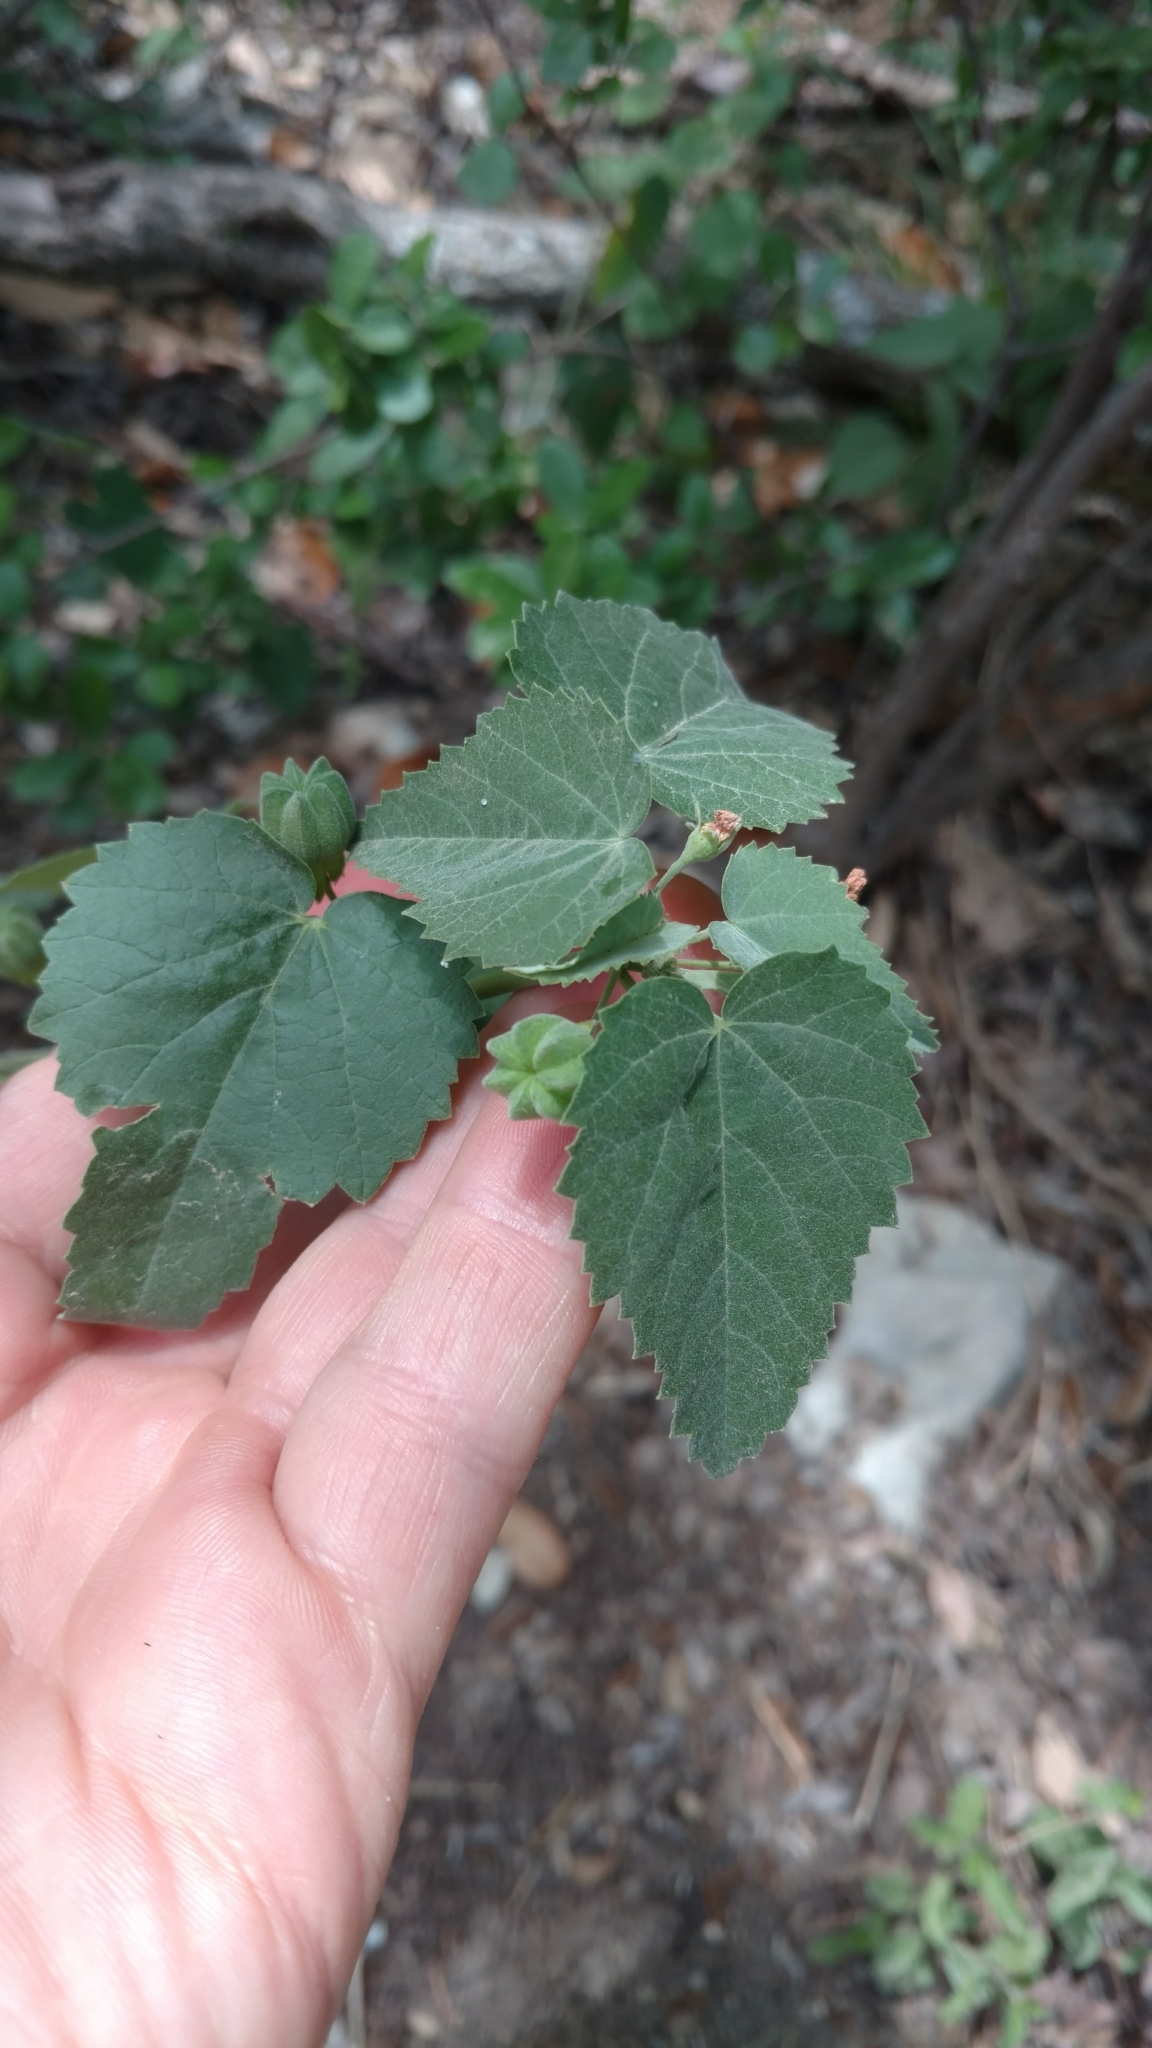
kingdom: Plantae
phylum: Tracheophyta
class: Magnoliopsida
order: Malvales
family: Malvaceae
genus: Abutilon
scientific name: Abutilon fruticosum
